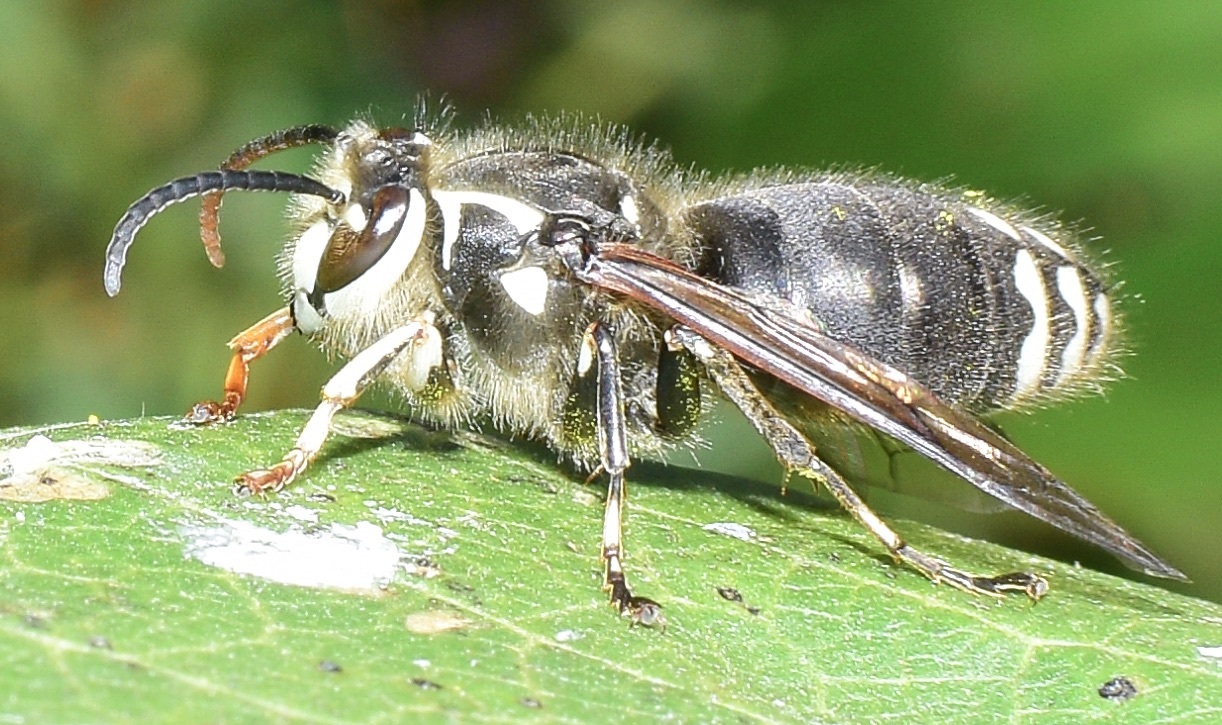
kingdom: Animalia
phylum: Arthropoda
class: Insecta
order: Hymenoptera
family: Vespidae
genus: Dolichovespula
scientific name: Dolichovespula maculata
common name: Bald-faced hornet
